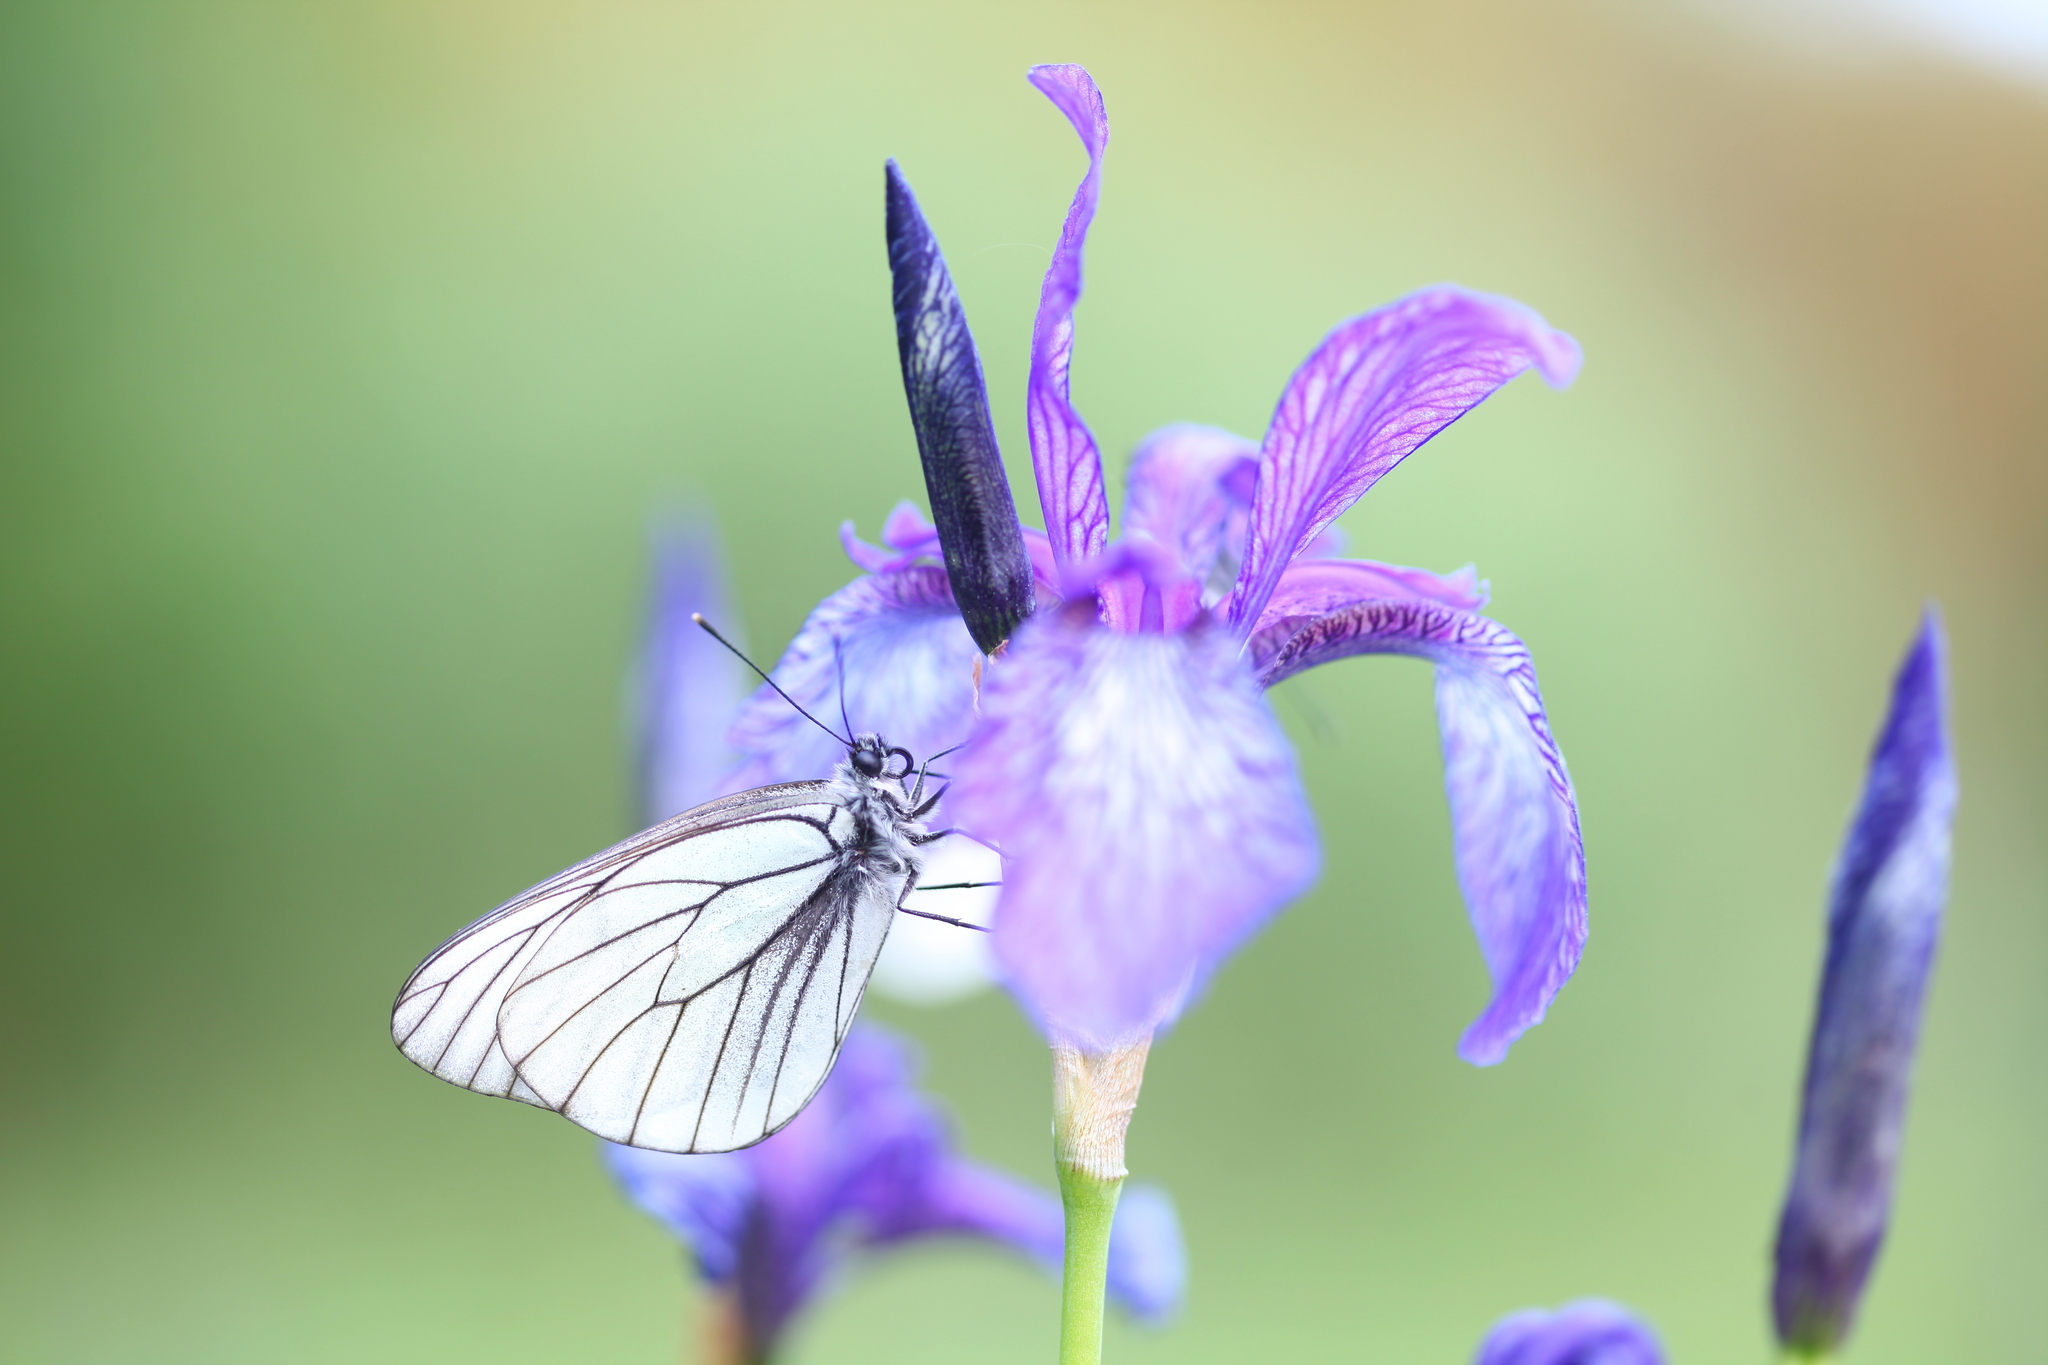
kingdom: Animalia
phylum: Arthropoda
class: Insecta
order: Lepidoptera
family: Pieridae
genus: Aporia
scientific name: Aporia crataegi
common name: Black-veined white
